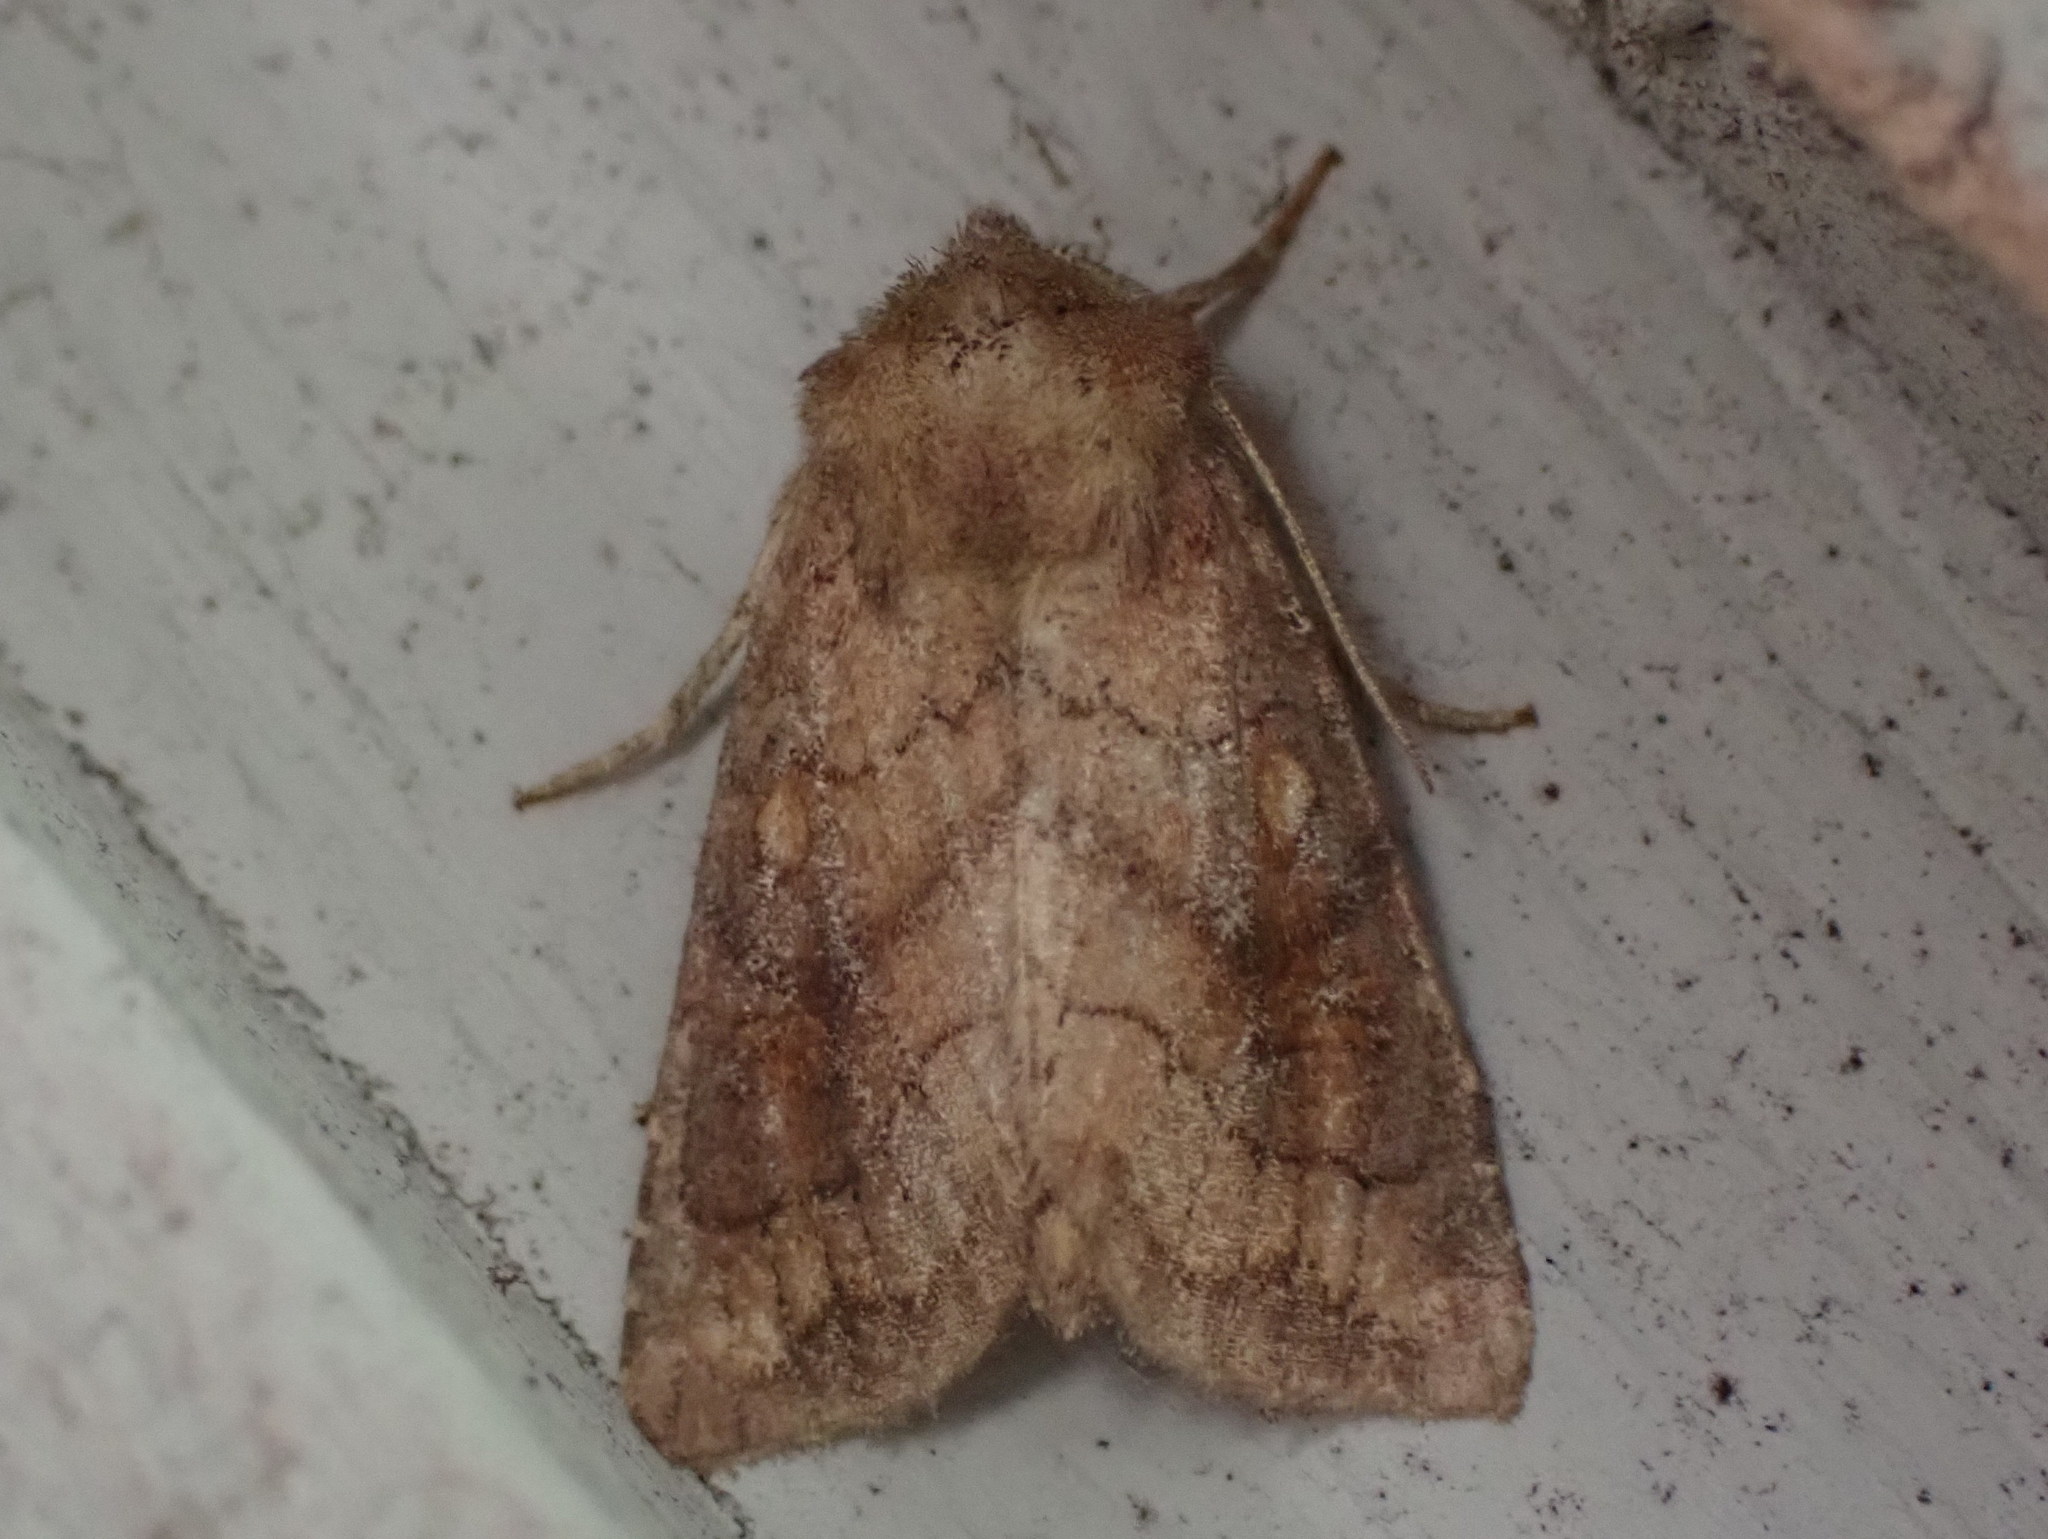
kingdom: Animalia
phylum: Arthropoda
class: Insecta
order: Lepidoptera
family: Noctuidae
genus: Tricholita
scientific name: Tricholita signata
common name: Signate quaker
